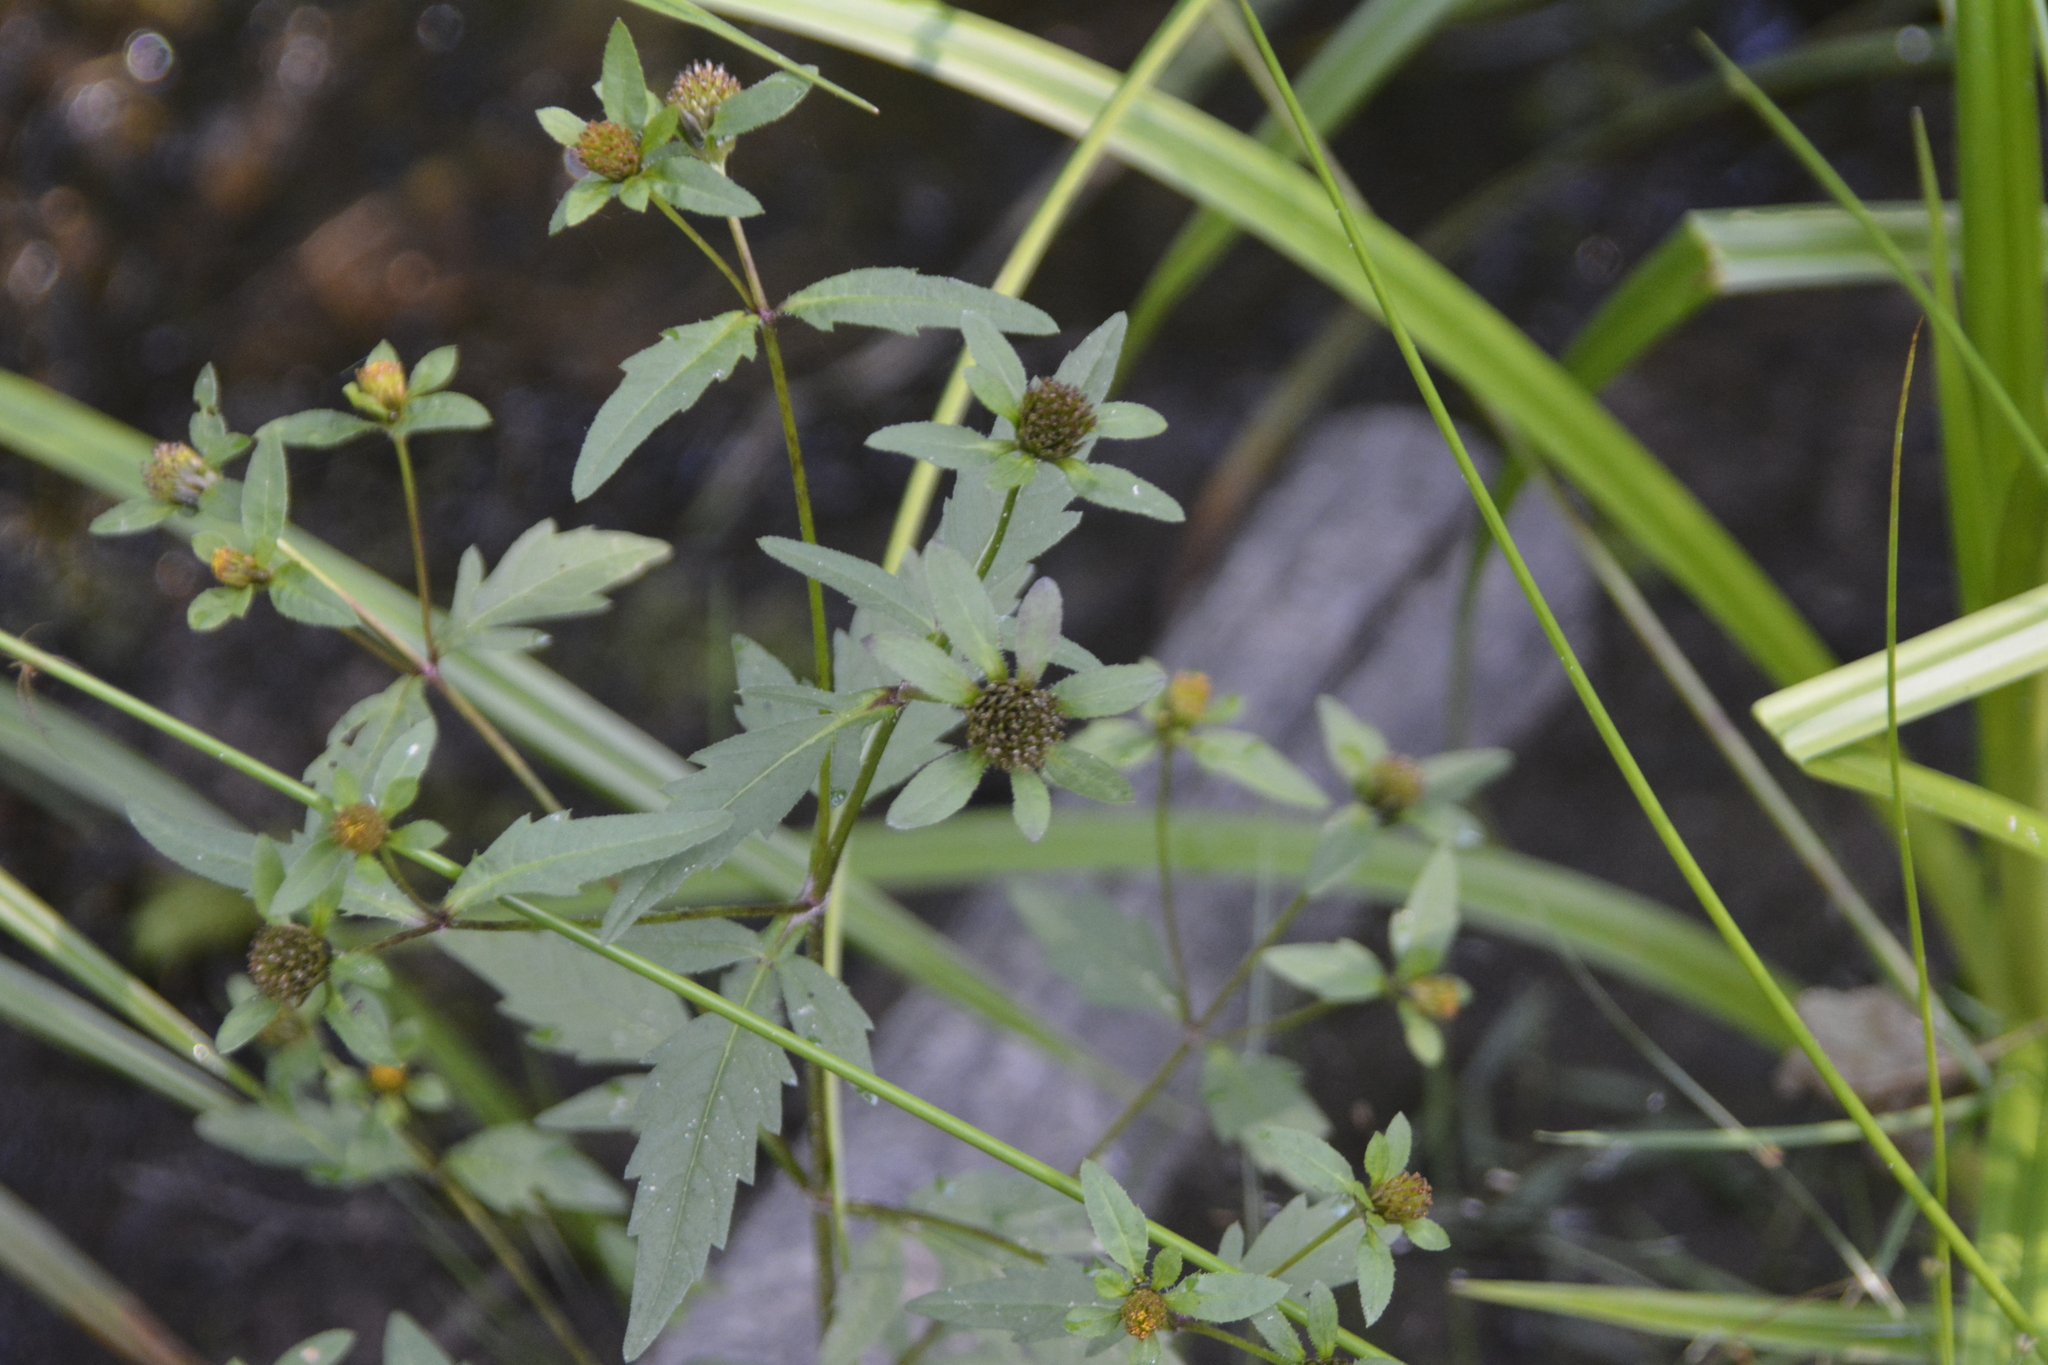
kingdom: Plantae
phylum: Tracheophyta
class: Magnoliopsida
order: Asterales
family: Asteraceae
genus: Bidens
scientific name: Bidens tripartita
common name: Trifid bur-marigold
